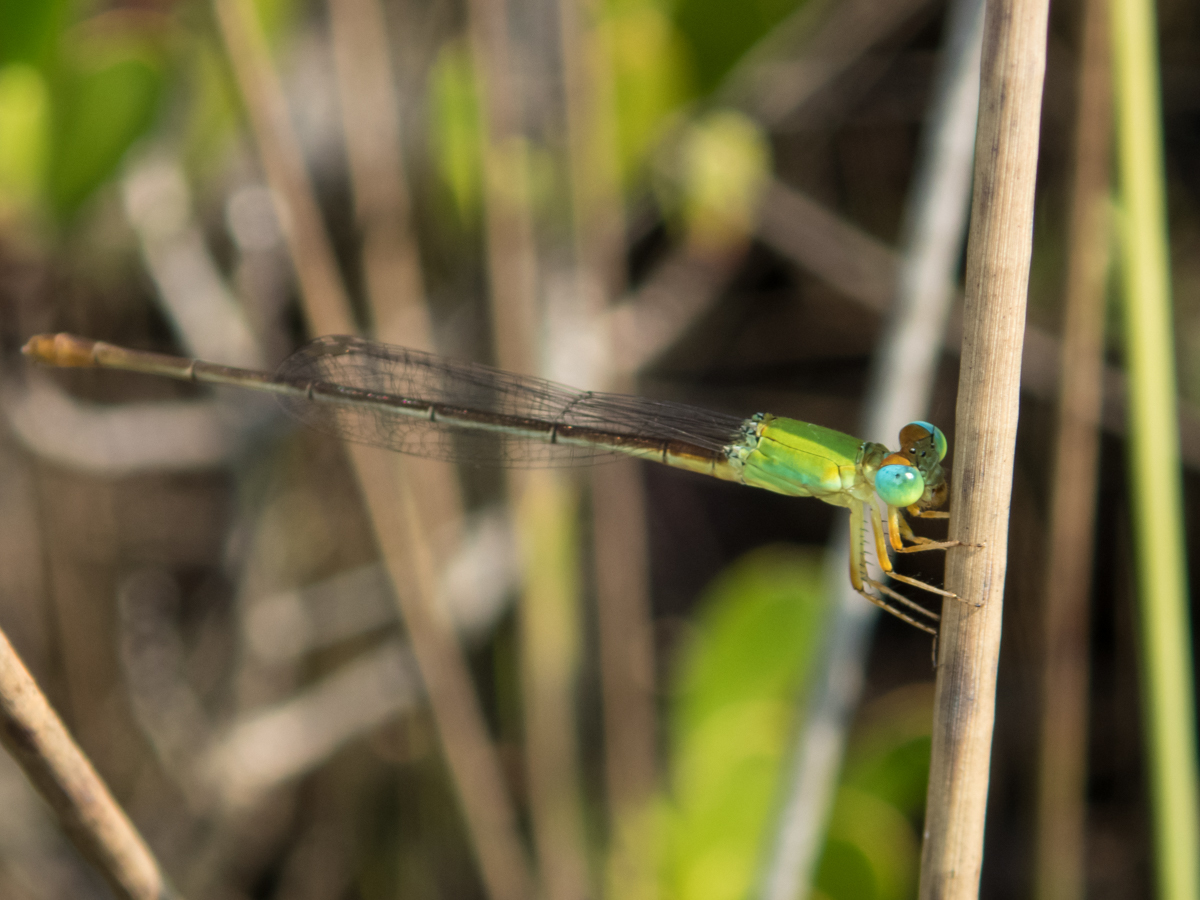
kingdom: Animalia
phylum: Arthropoda
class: Insecta
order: Odonata
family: Coenagrionidae
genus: Ceriagrion
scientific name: Ceriagrion cerinorubellum
